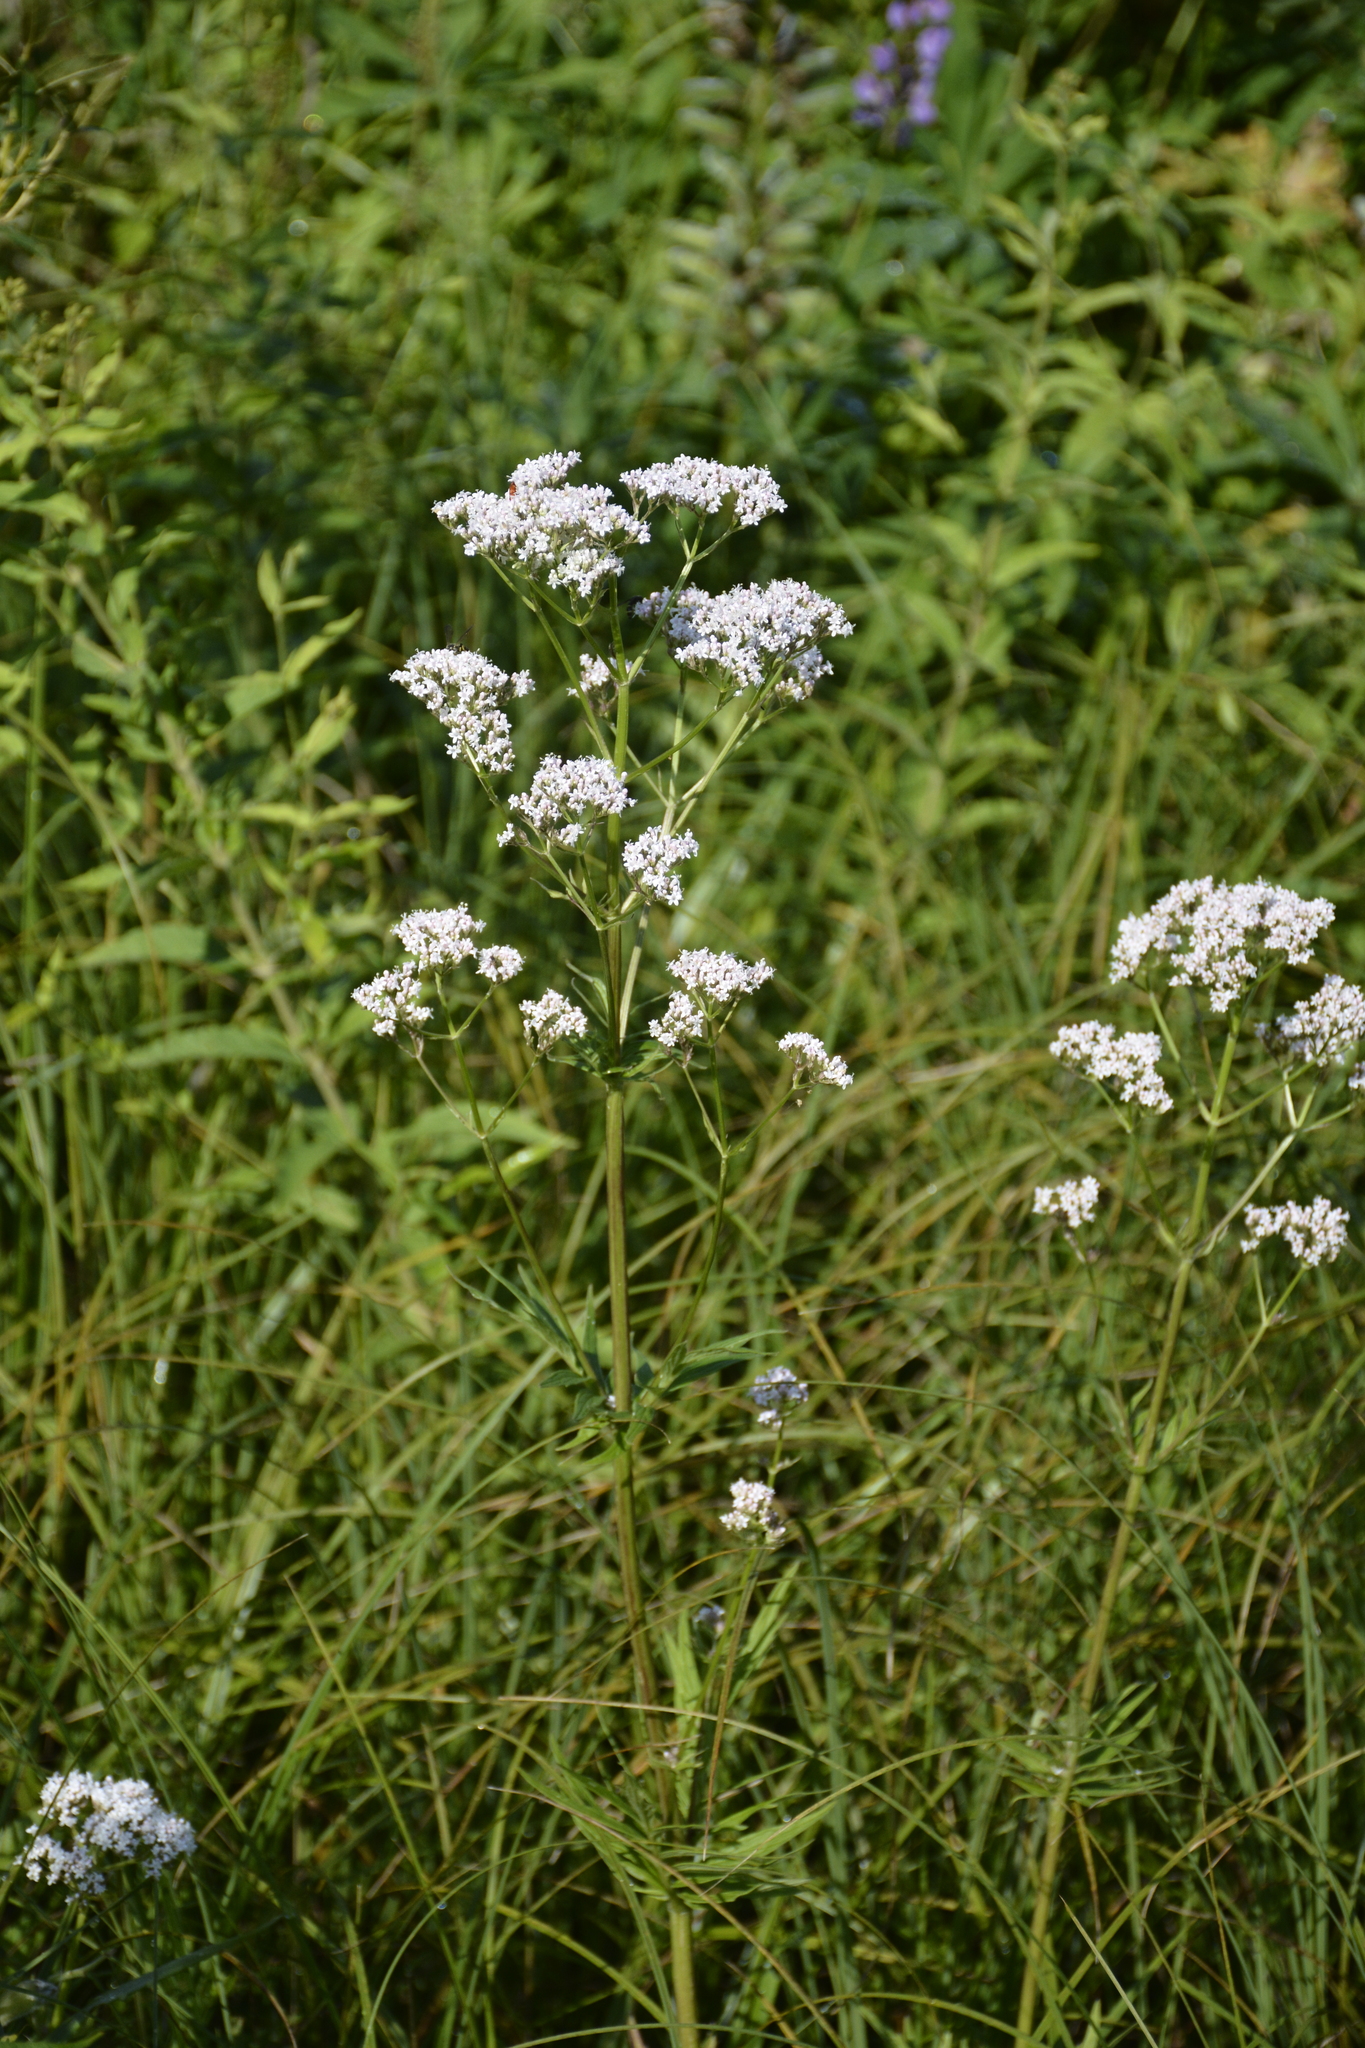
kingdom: Plantae
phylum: Tracheophyta
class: Magnoliopsida
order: Dipsacales
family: Caprifoliaceae
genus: Valeriana
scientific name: Valeriana officinalis
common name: Common valerian
